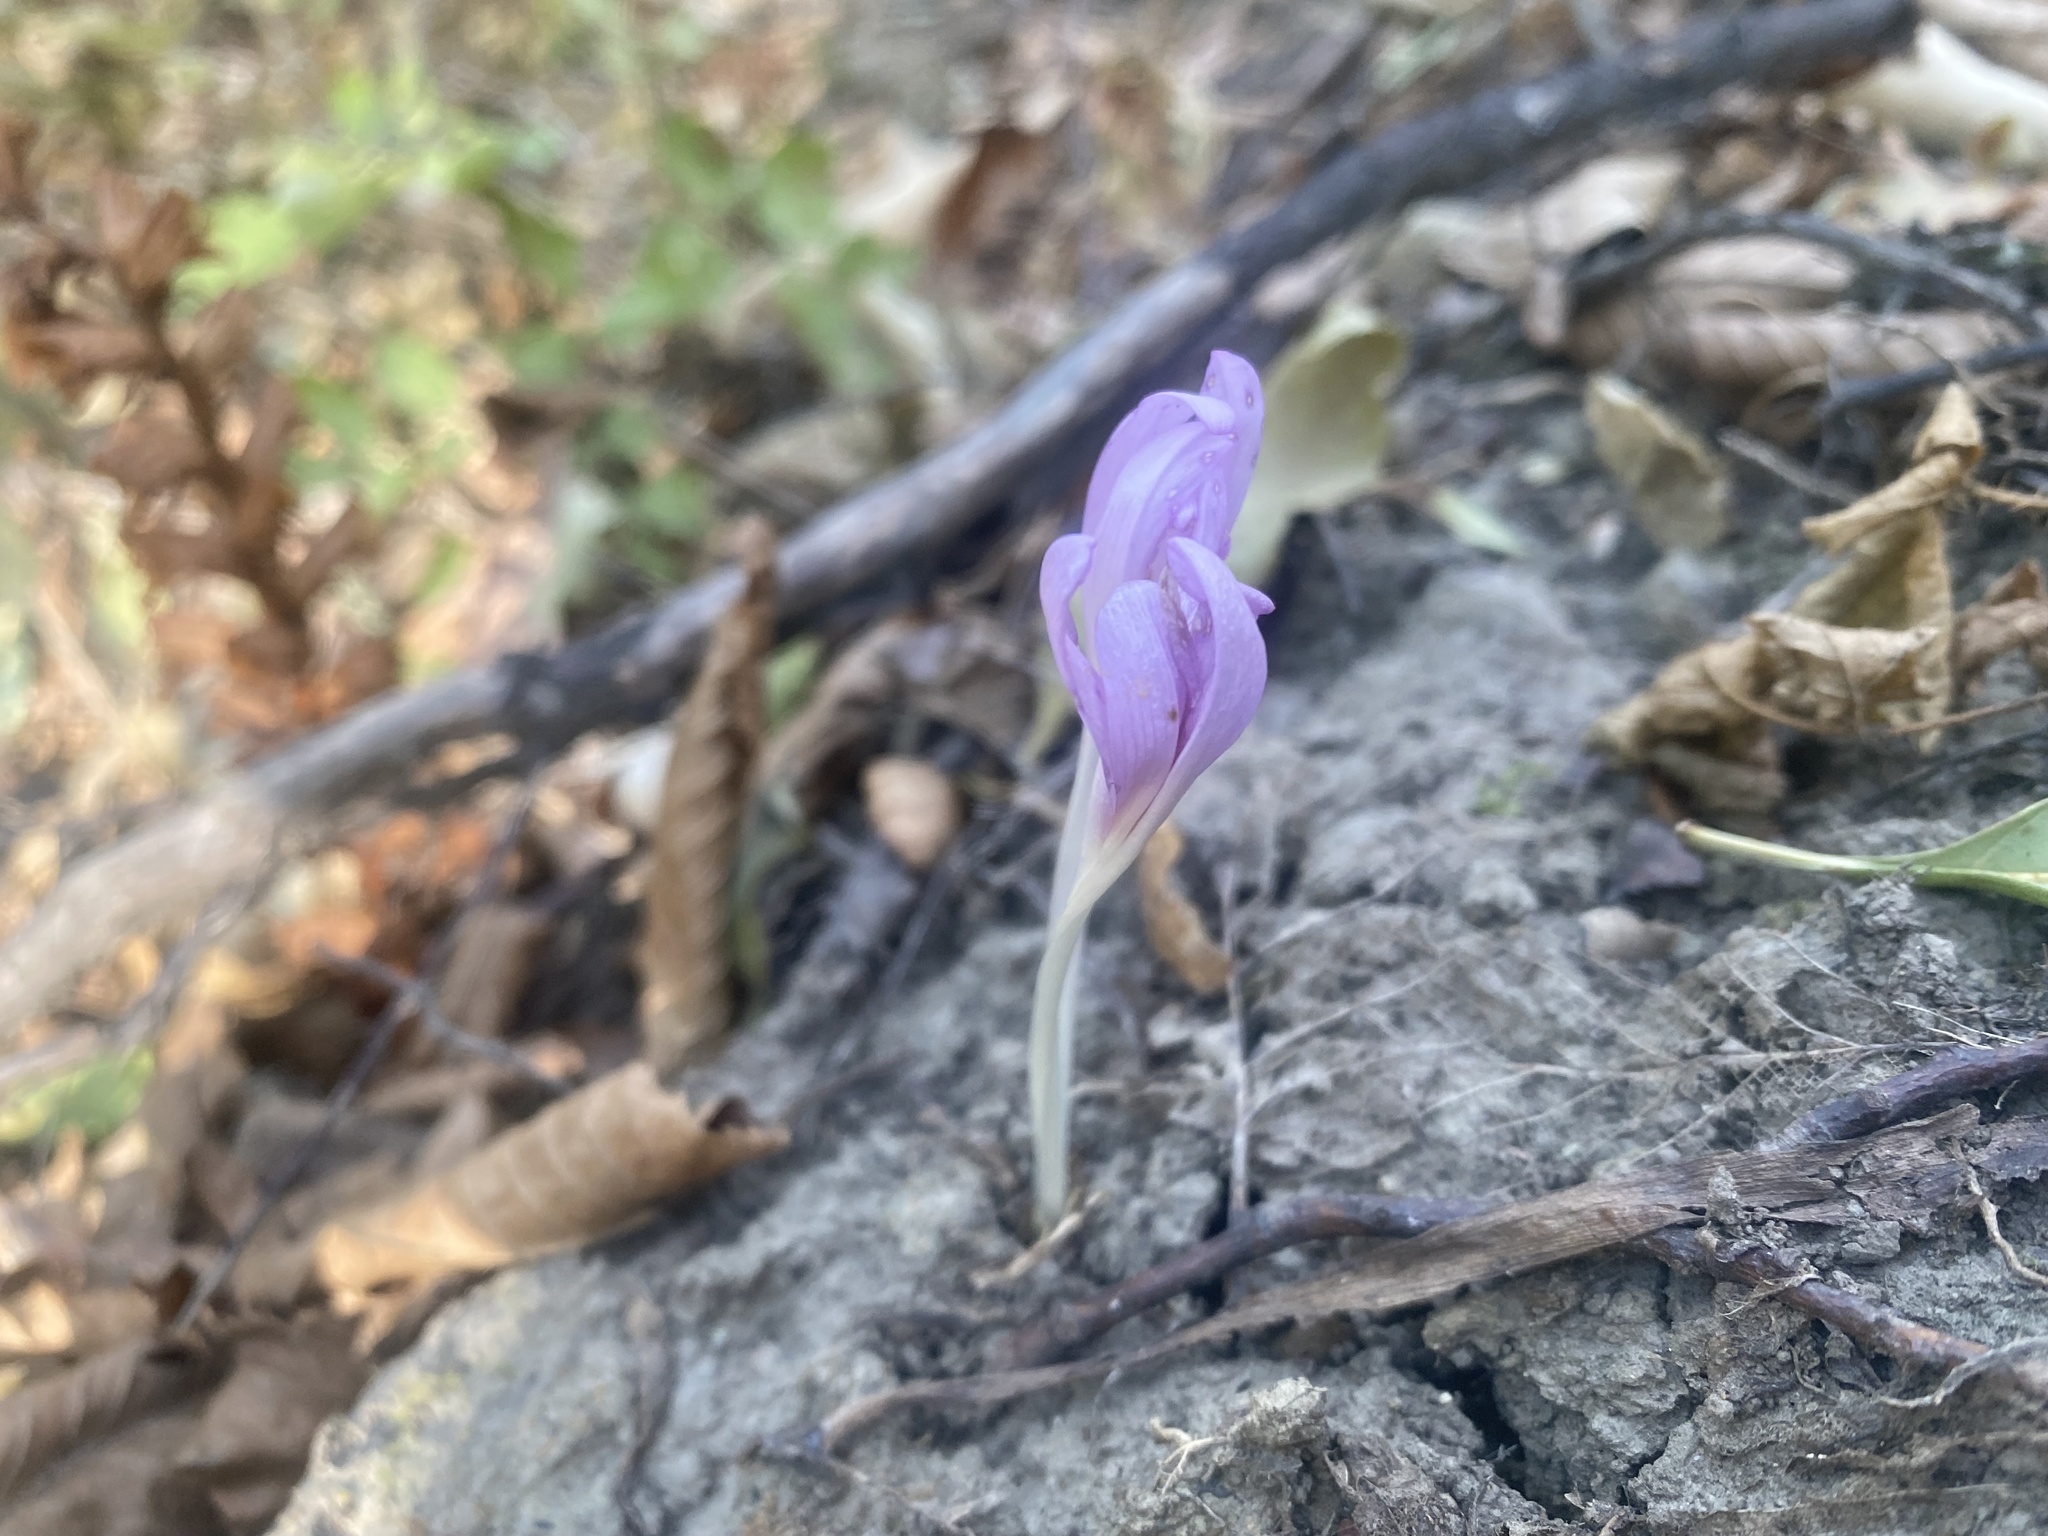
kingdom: Plantae
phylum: Tracheophyta
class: Liliopsida
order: Liliales
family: Colchicaceae
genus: Colchicum
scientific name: Colchicum umbrosum
